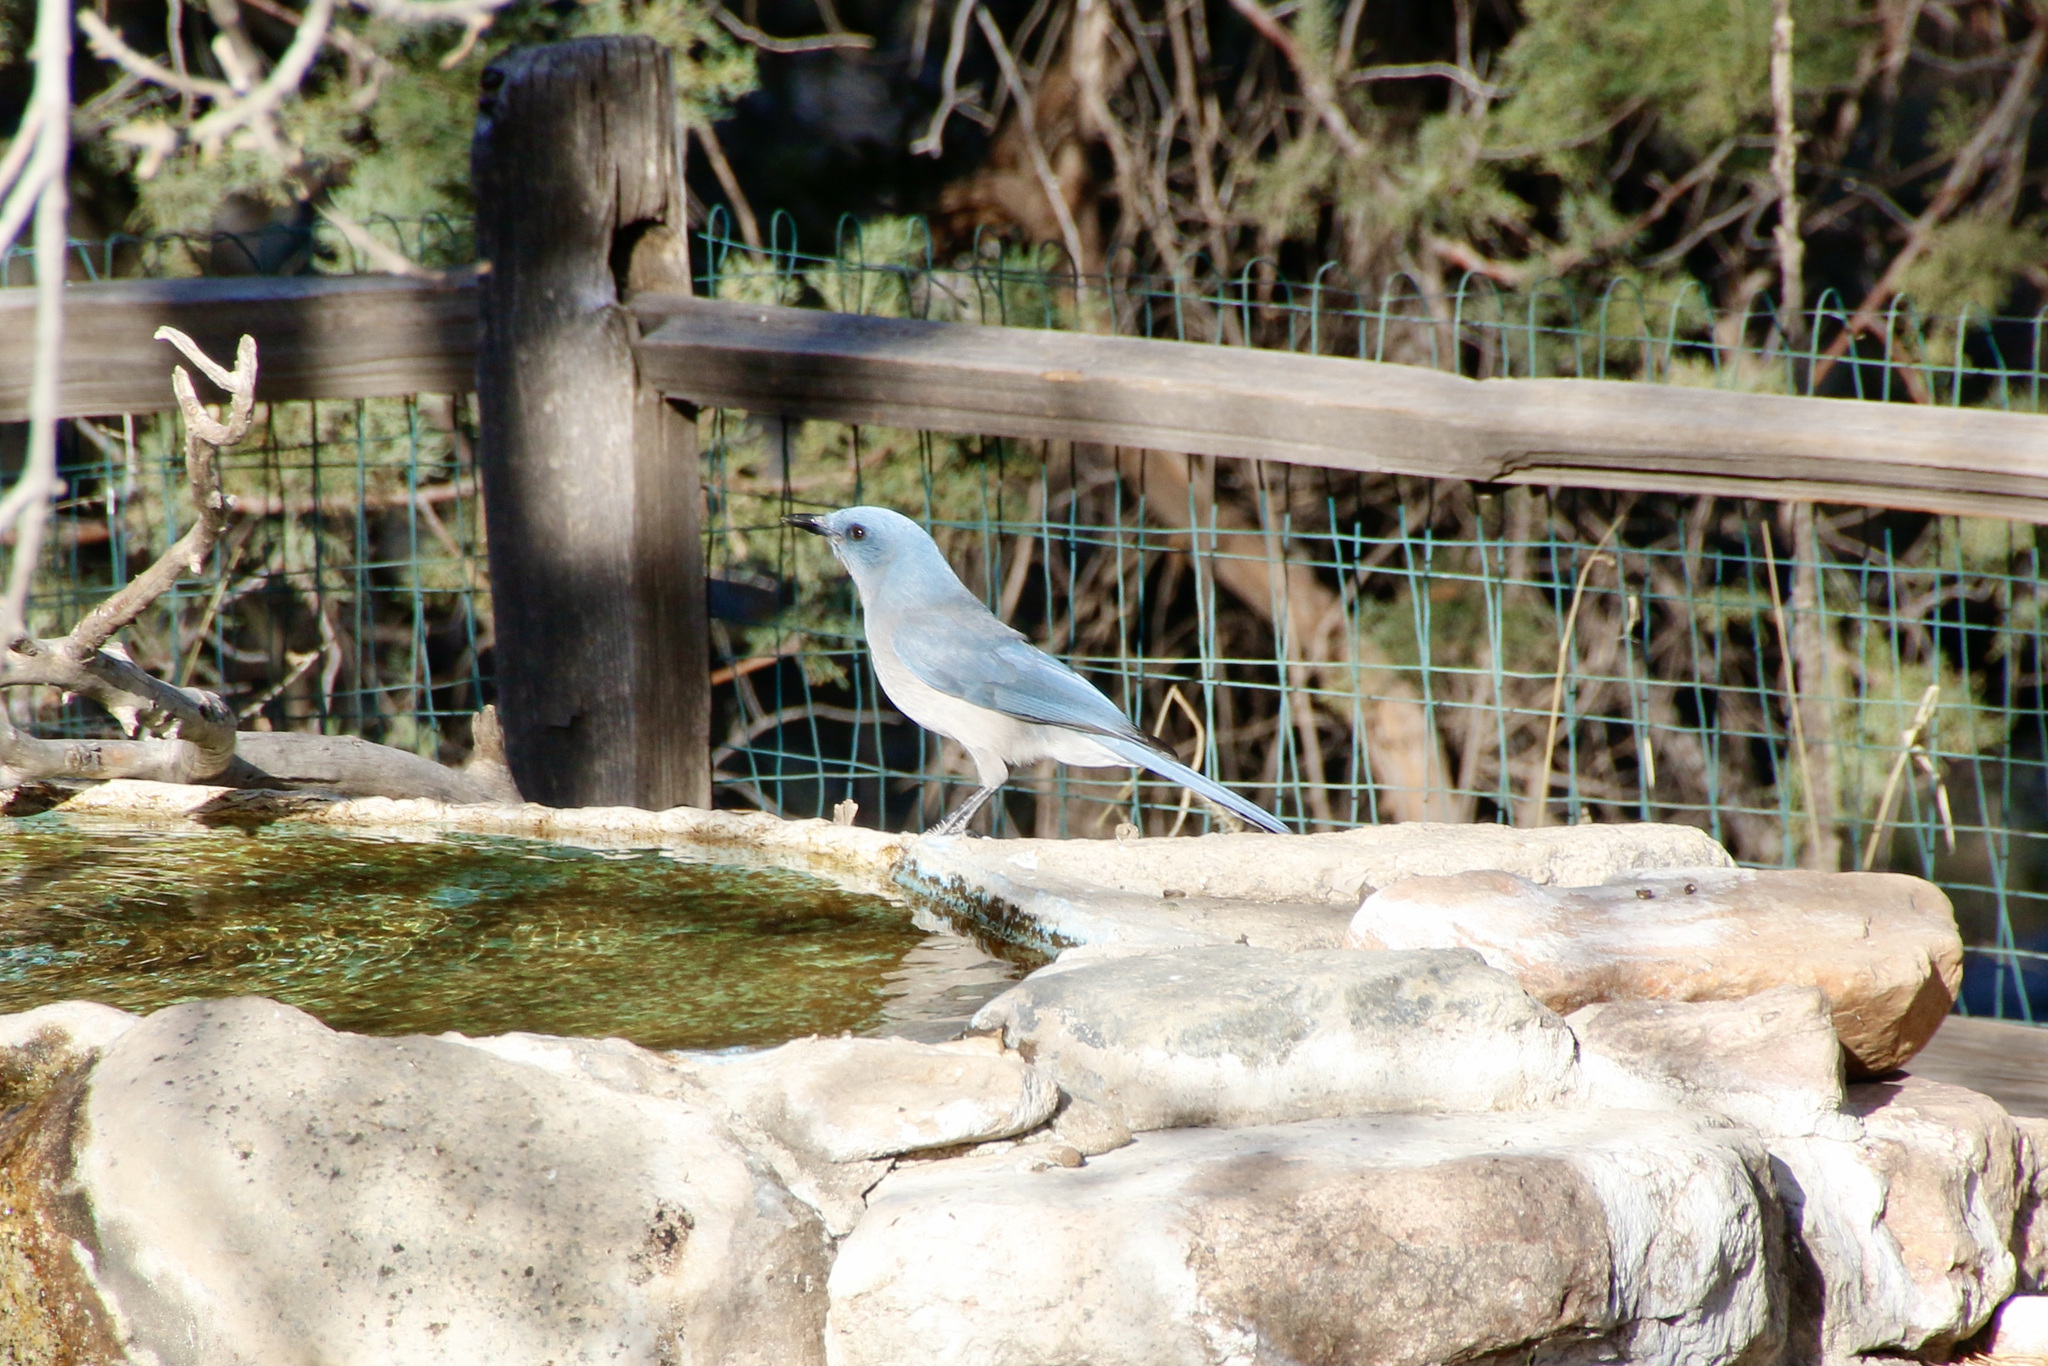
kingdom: Animalia
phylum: Chordata
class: Aves
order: Passeriformes
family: Corvidae
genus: Aphelocoma
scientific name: Aphelocoma wollweberi
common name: Mexican jay
